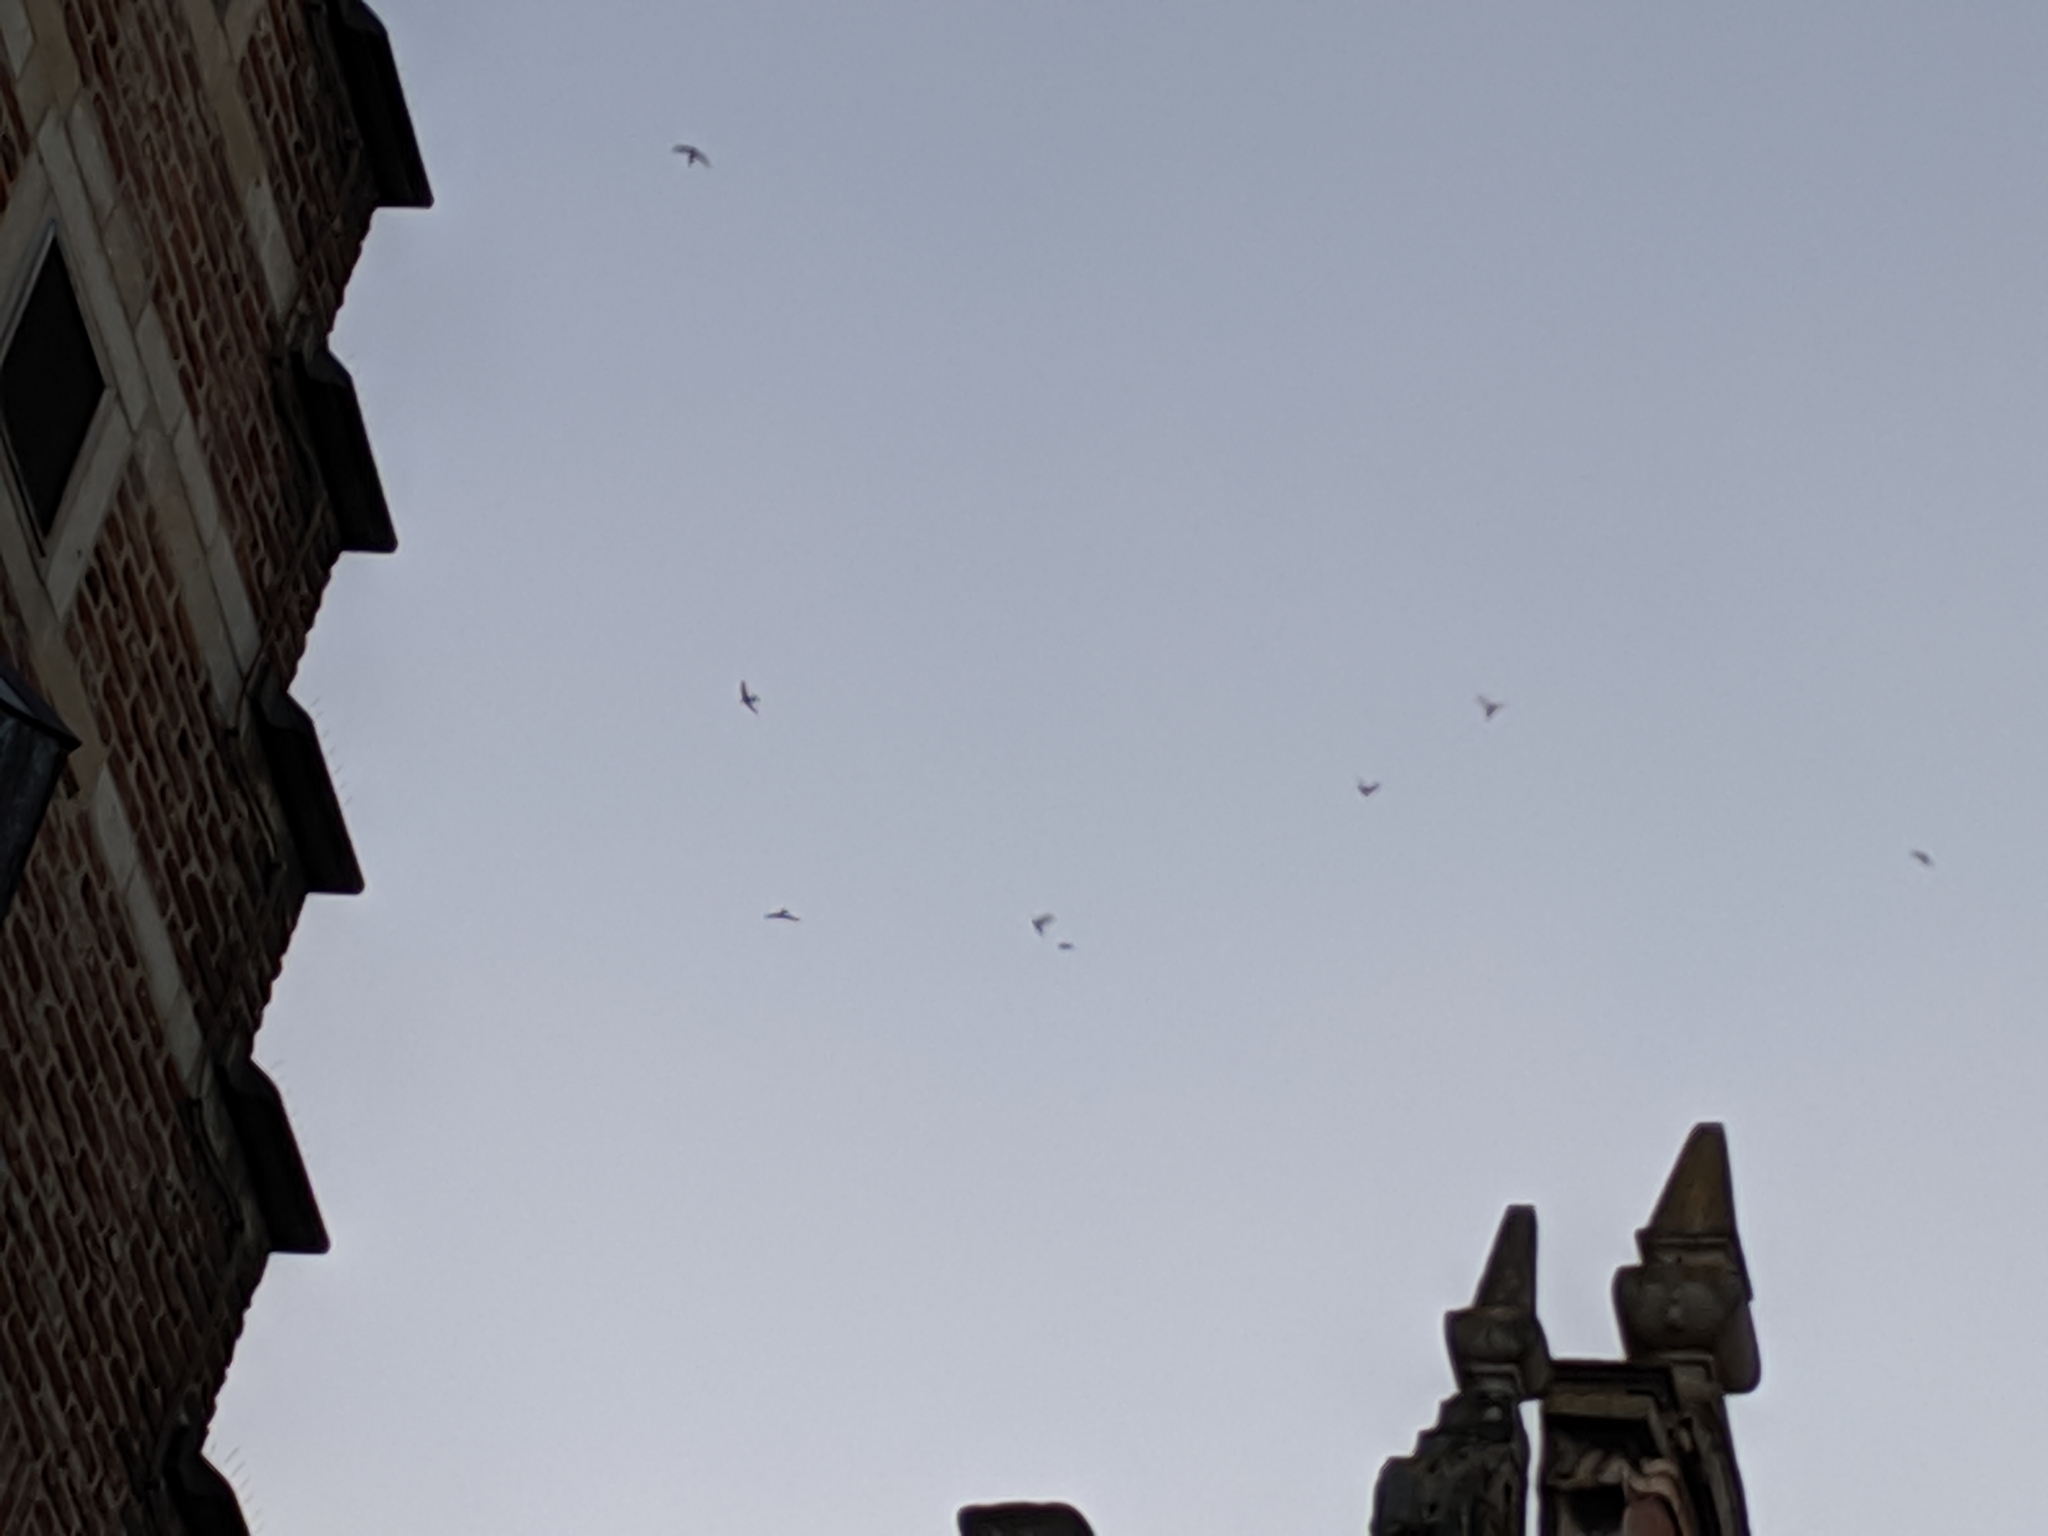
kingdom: Animalia
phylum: Chordata
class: Aves
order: Apodiformes
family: Apodidae
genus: Apus
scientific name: Apus apus
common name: Common swift
